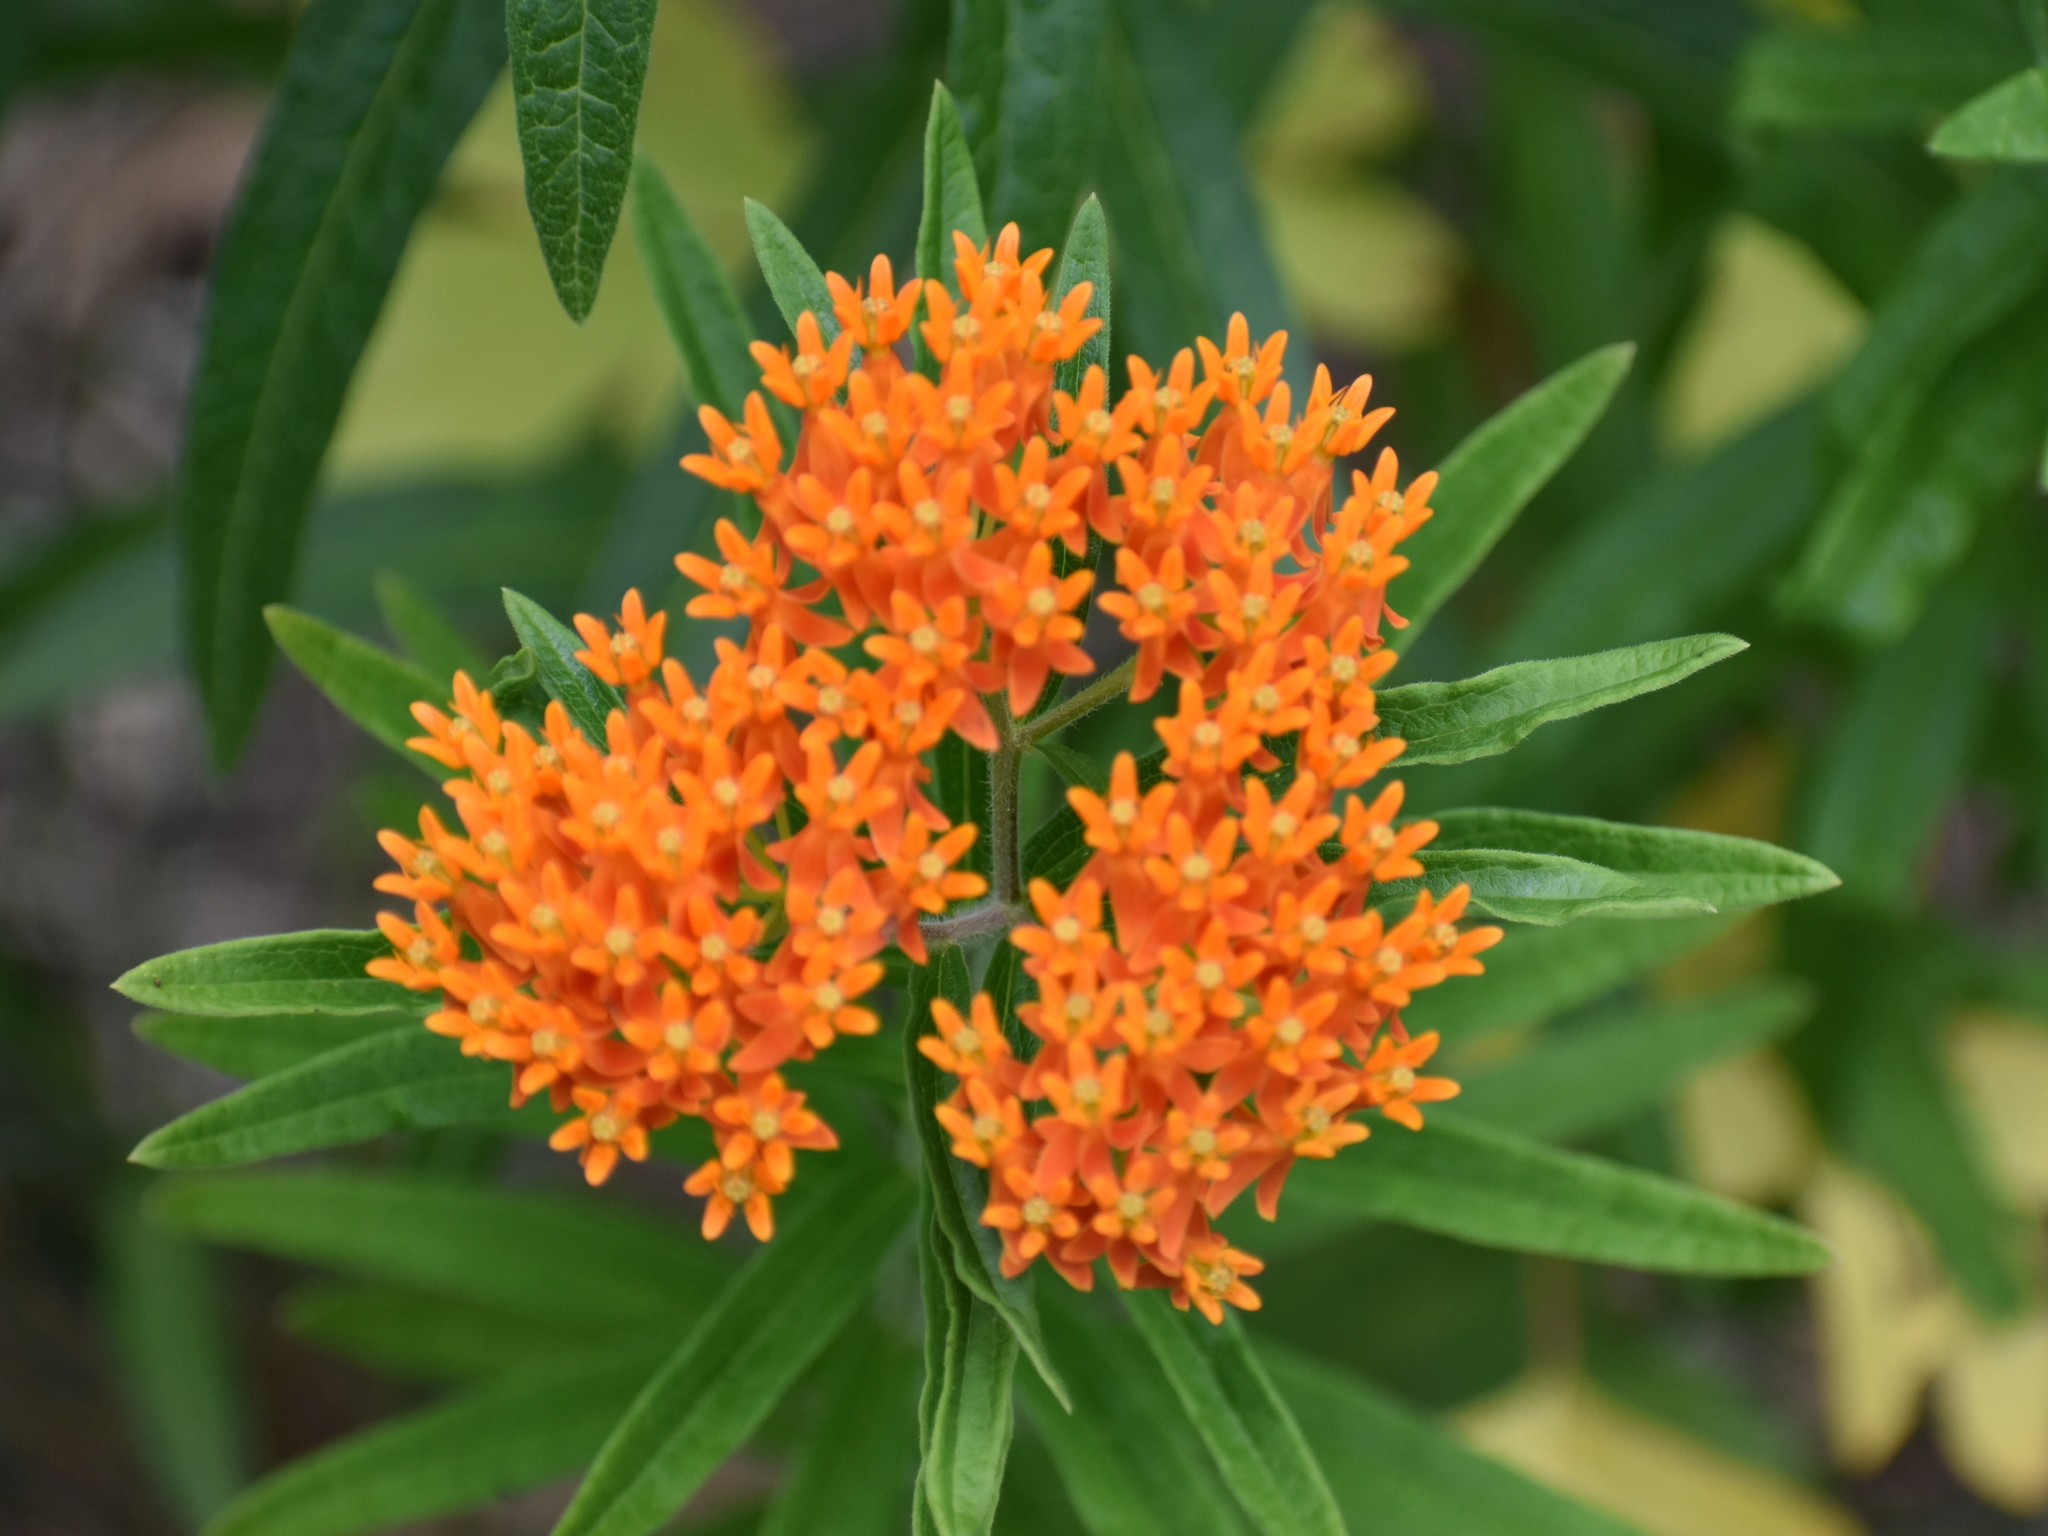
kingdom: Plantae
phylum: Tracheophyta
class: Magnoliopsida
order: Gentianales
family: Apocynaceae
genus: Asclepias
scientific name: Asclepias tuberosa
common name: Butterfly milkweed
